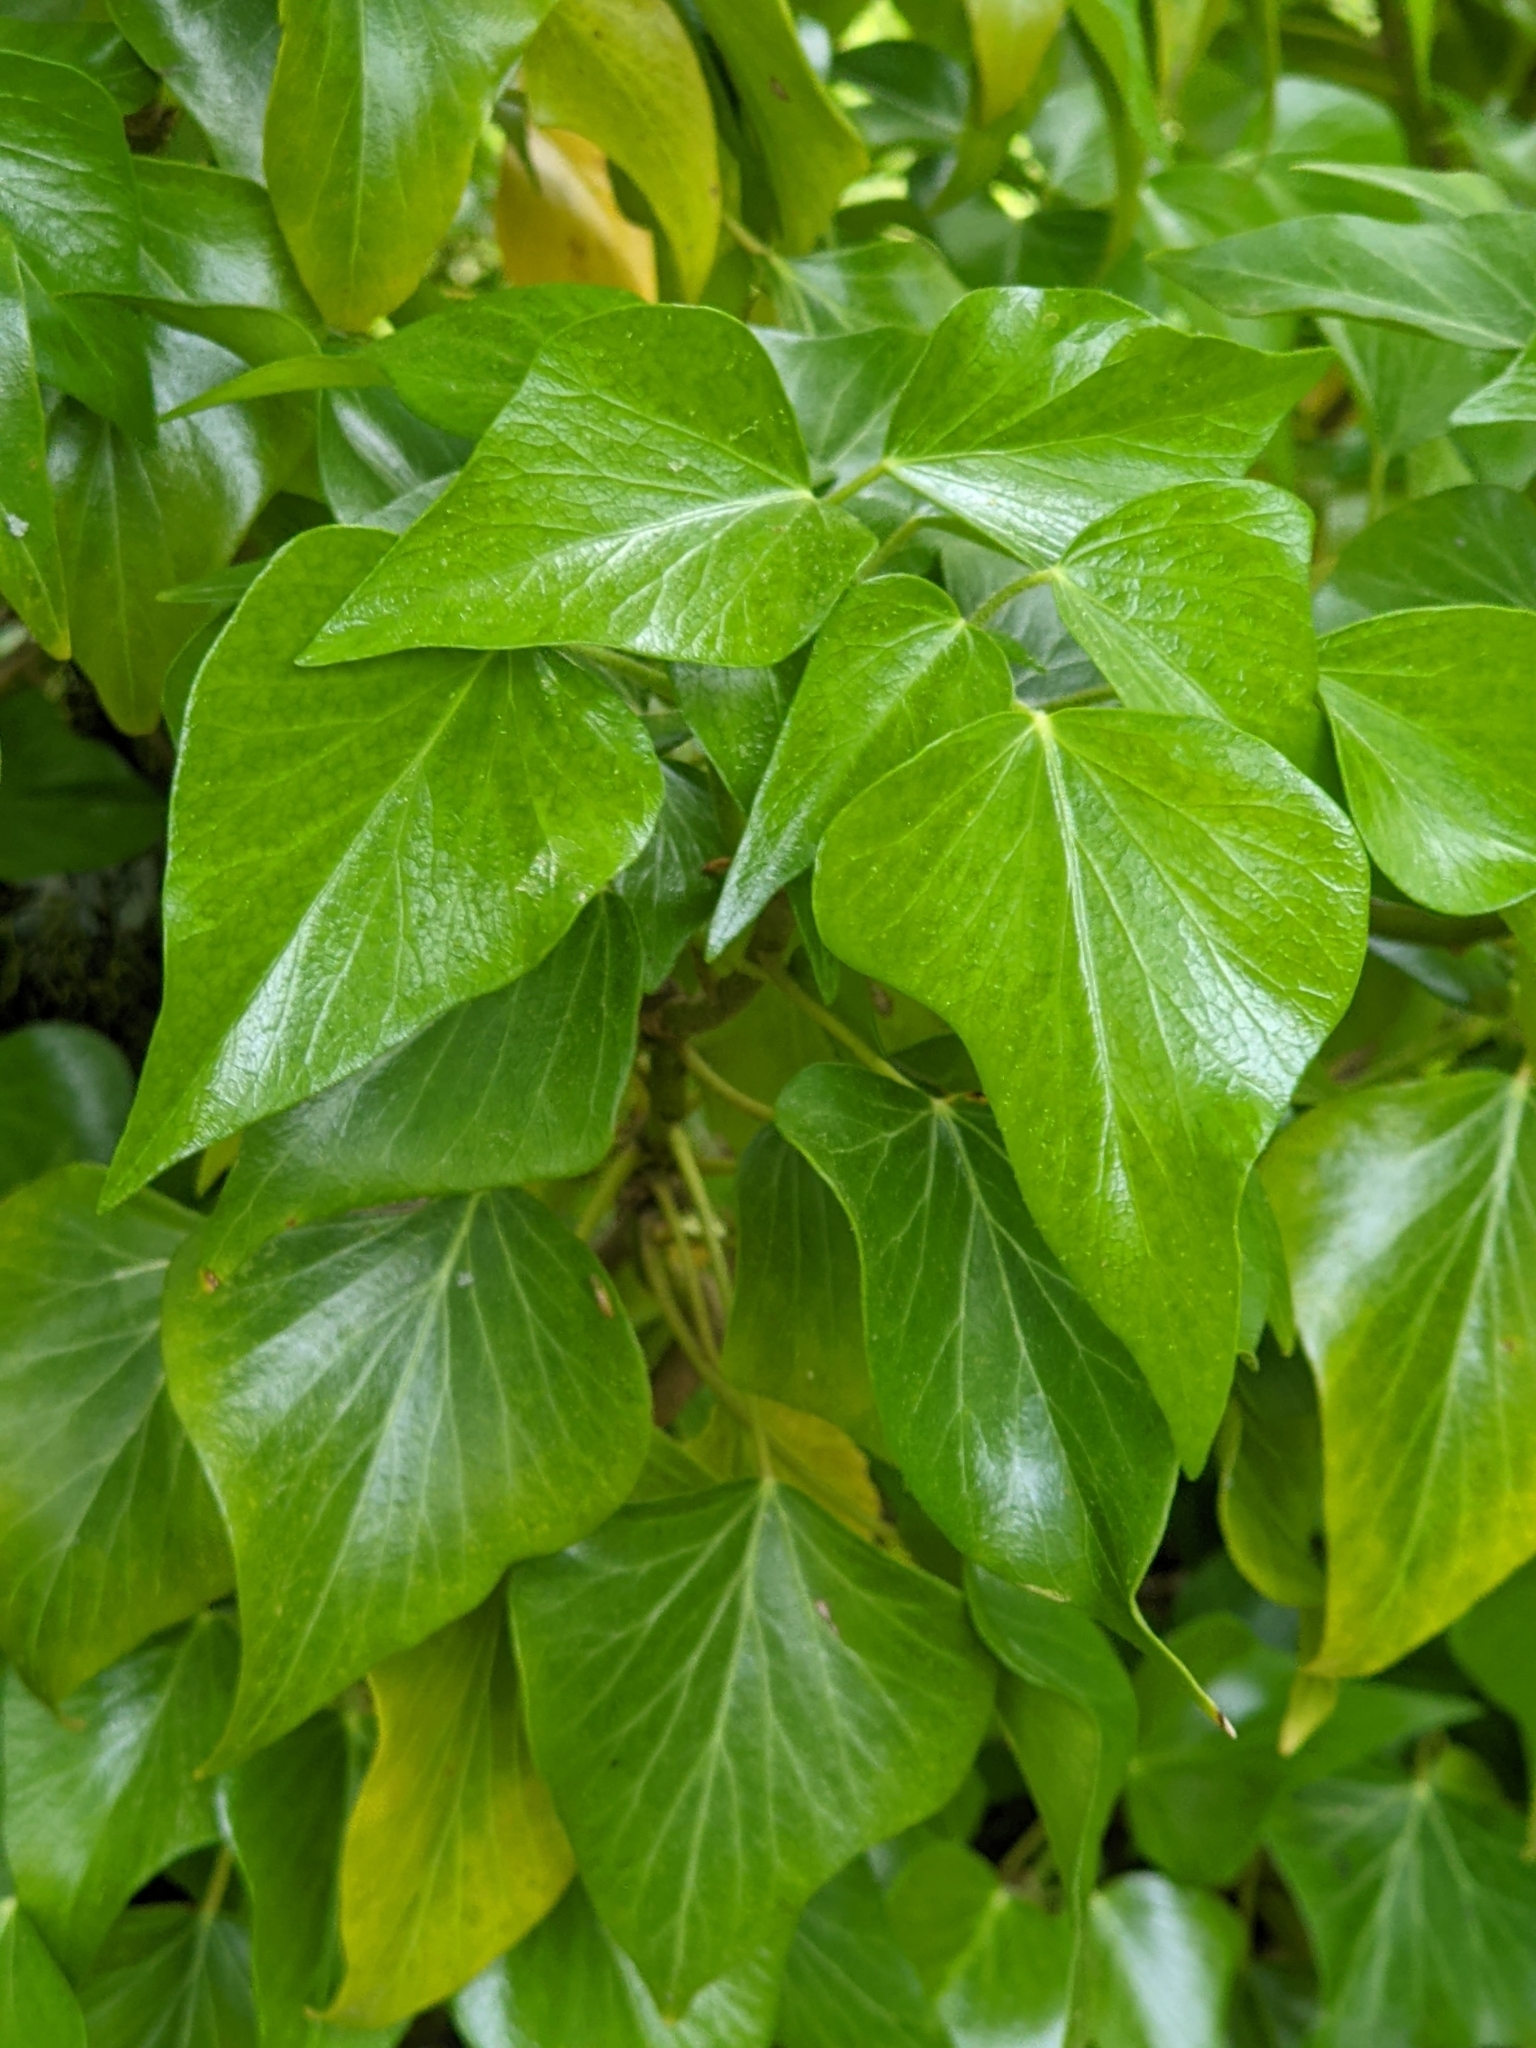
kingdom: Plantae
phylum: Tracheophyta
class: Magnoliopsida
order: Apiales
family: Araliaceae
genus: Hedera
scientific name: Hedera helix
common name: Ivy
